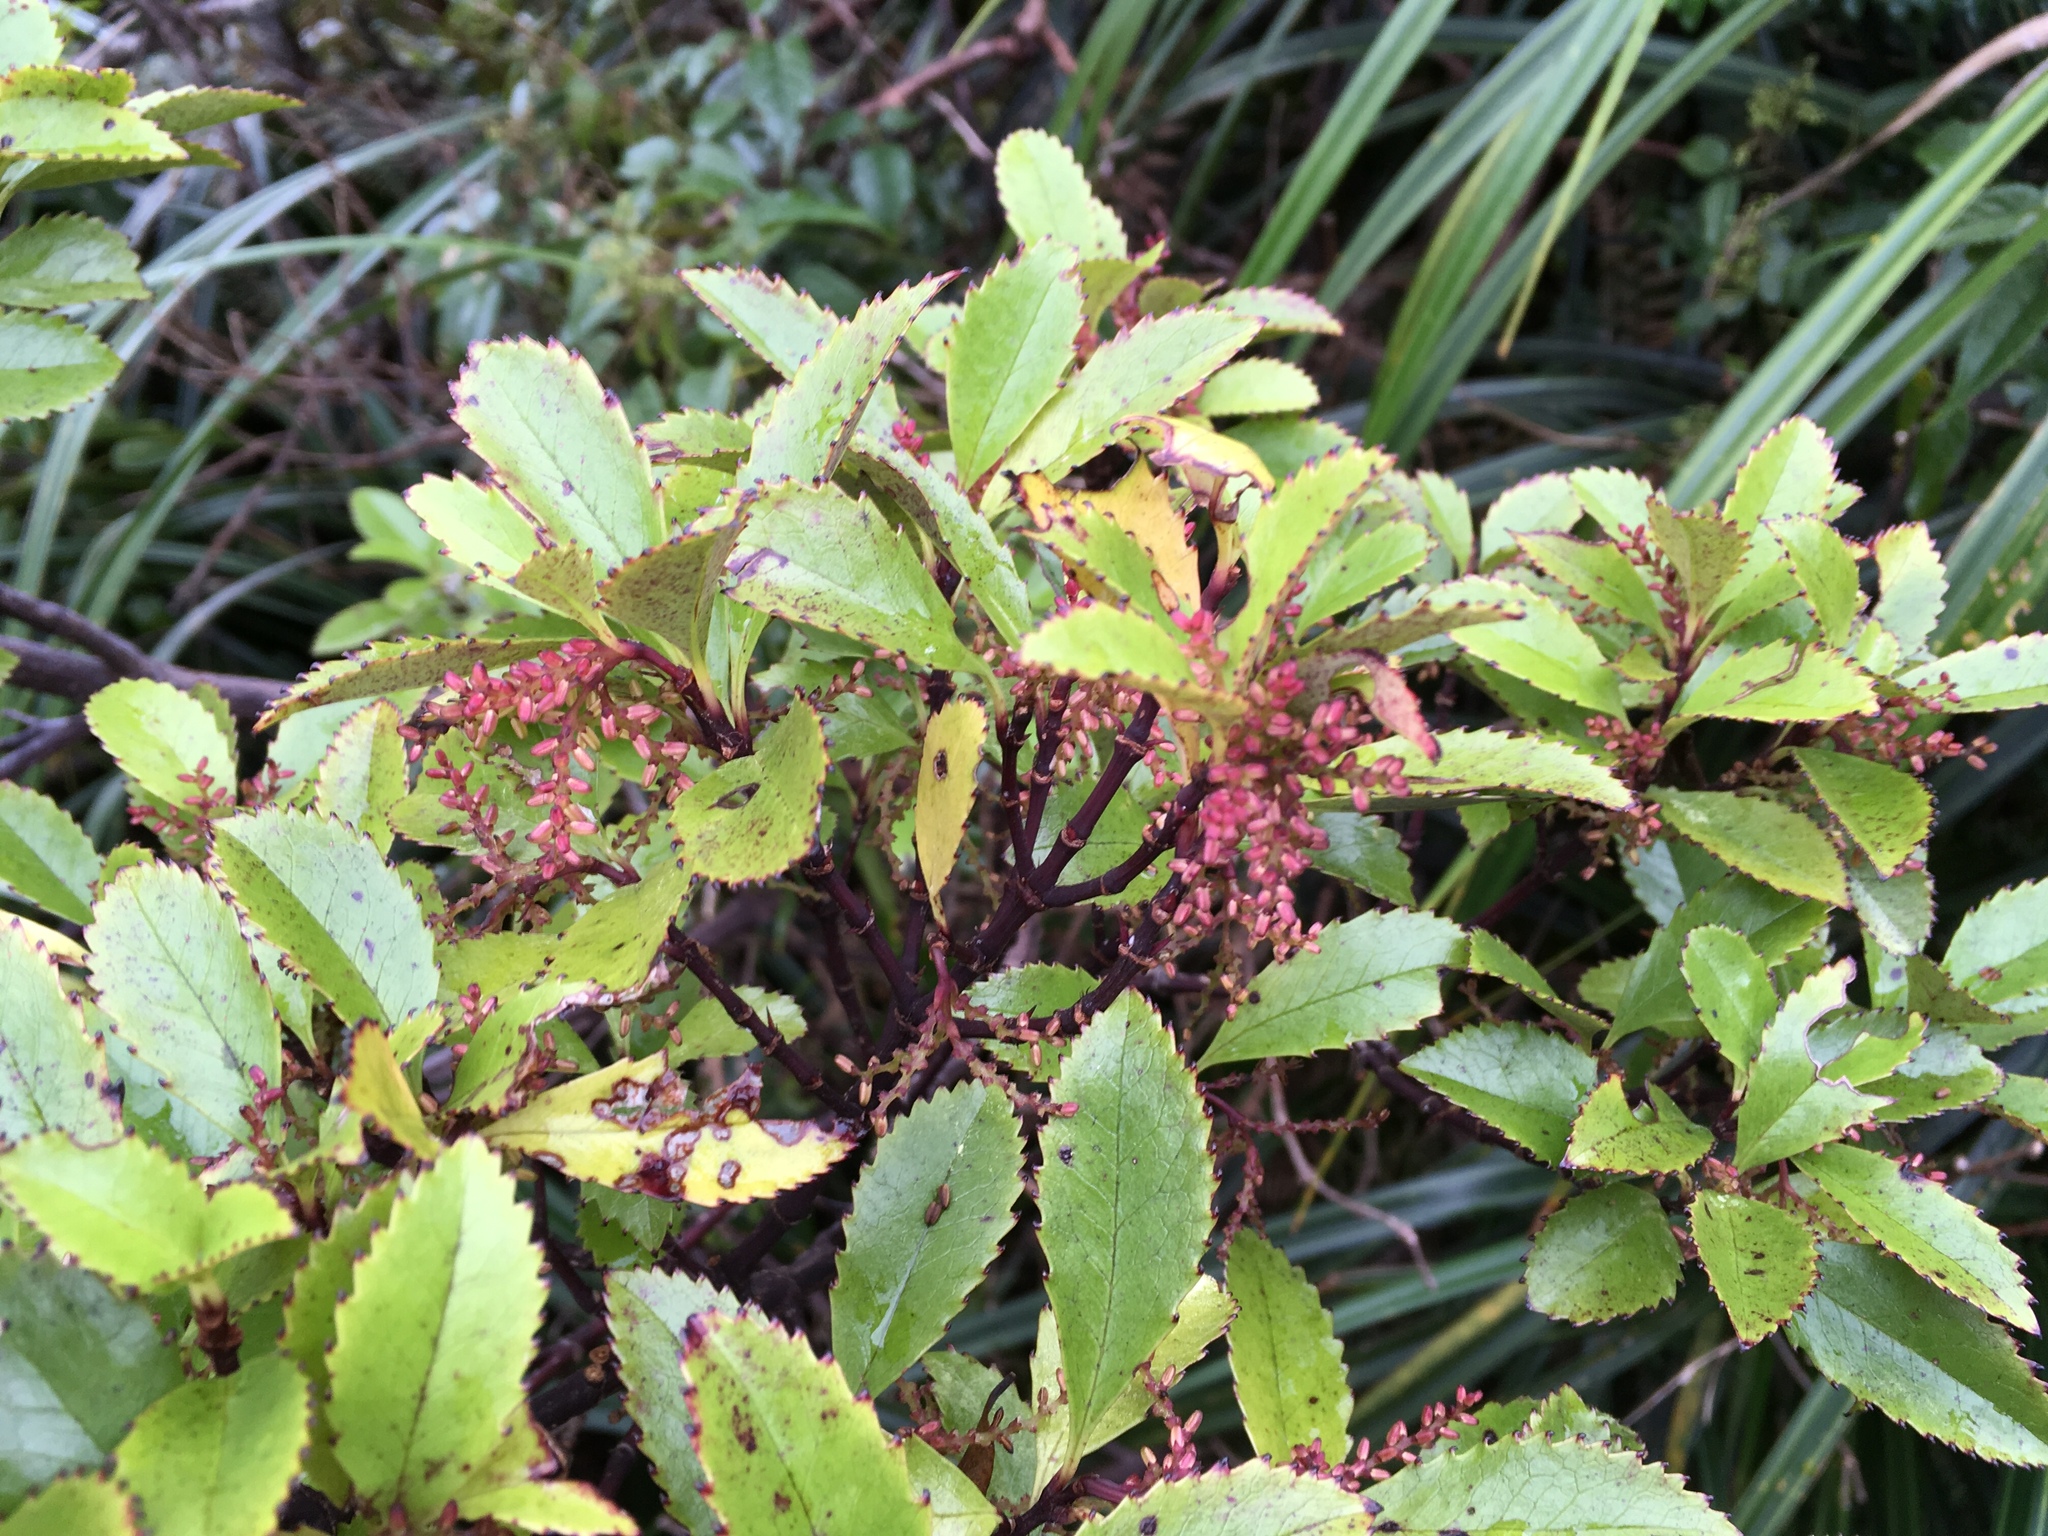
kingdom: Plantae
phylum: Tracheophyta
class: Magnoliopsida
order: Chloranthales
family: Chloranthaceae
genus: Ascarina
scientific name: Ascarina lucida
